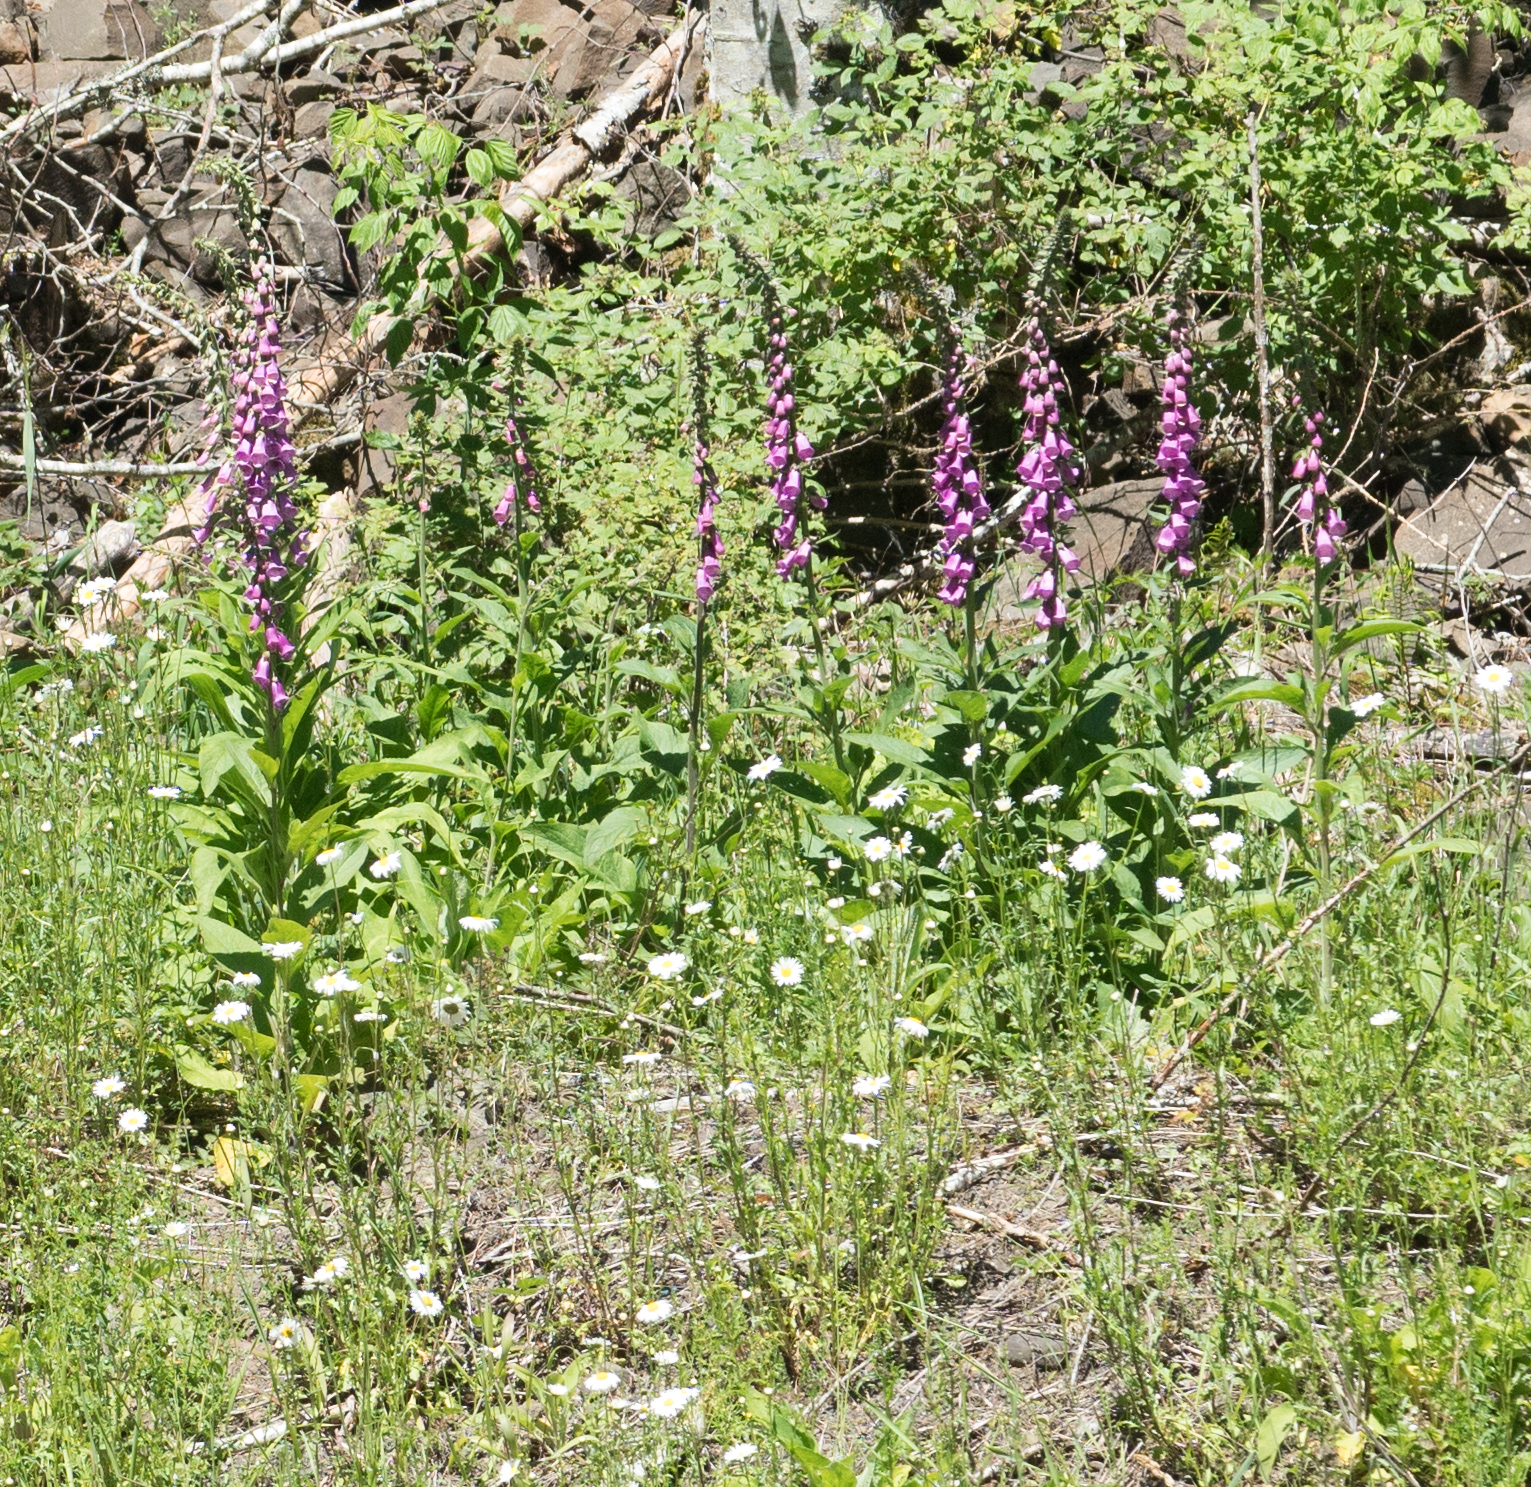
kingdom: Plantae
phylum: Tracheophyta
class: Magnoliopsida
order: Lamiales
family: Plantaginaceae
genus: Digitalis
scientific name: Digitalis purpurea
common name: Foxglove
